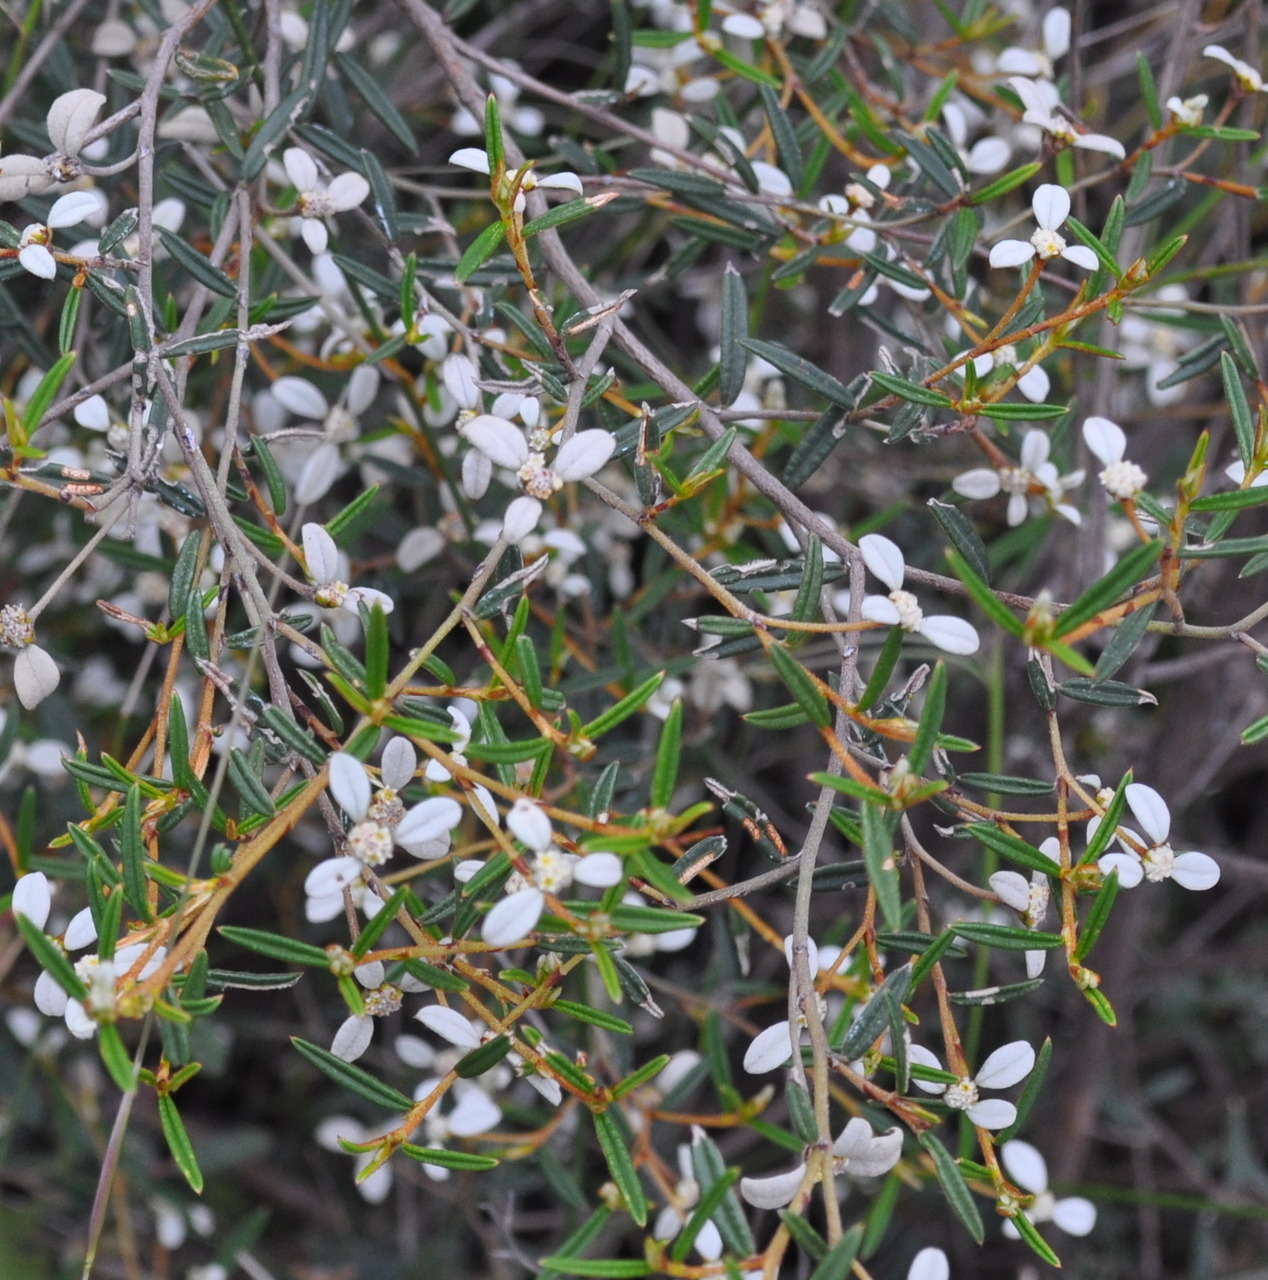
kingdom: Plantae
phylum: Tracheophyta
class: Magnoliopsida
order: Rosales
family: Rhamnaceae
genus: Spyridium
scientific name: Spyridium vexilliferum
